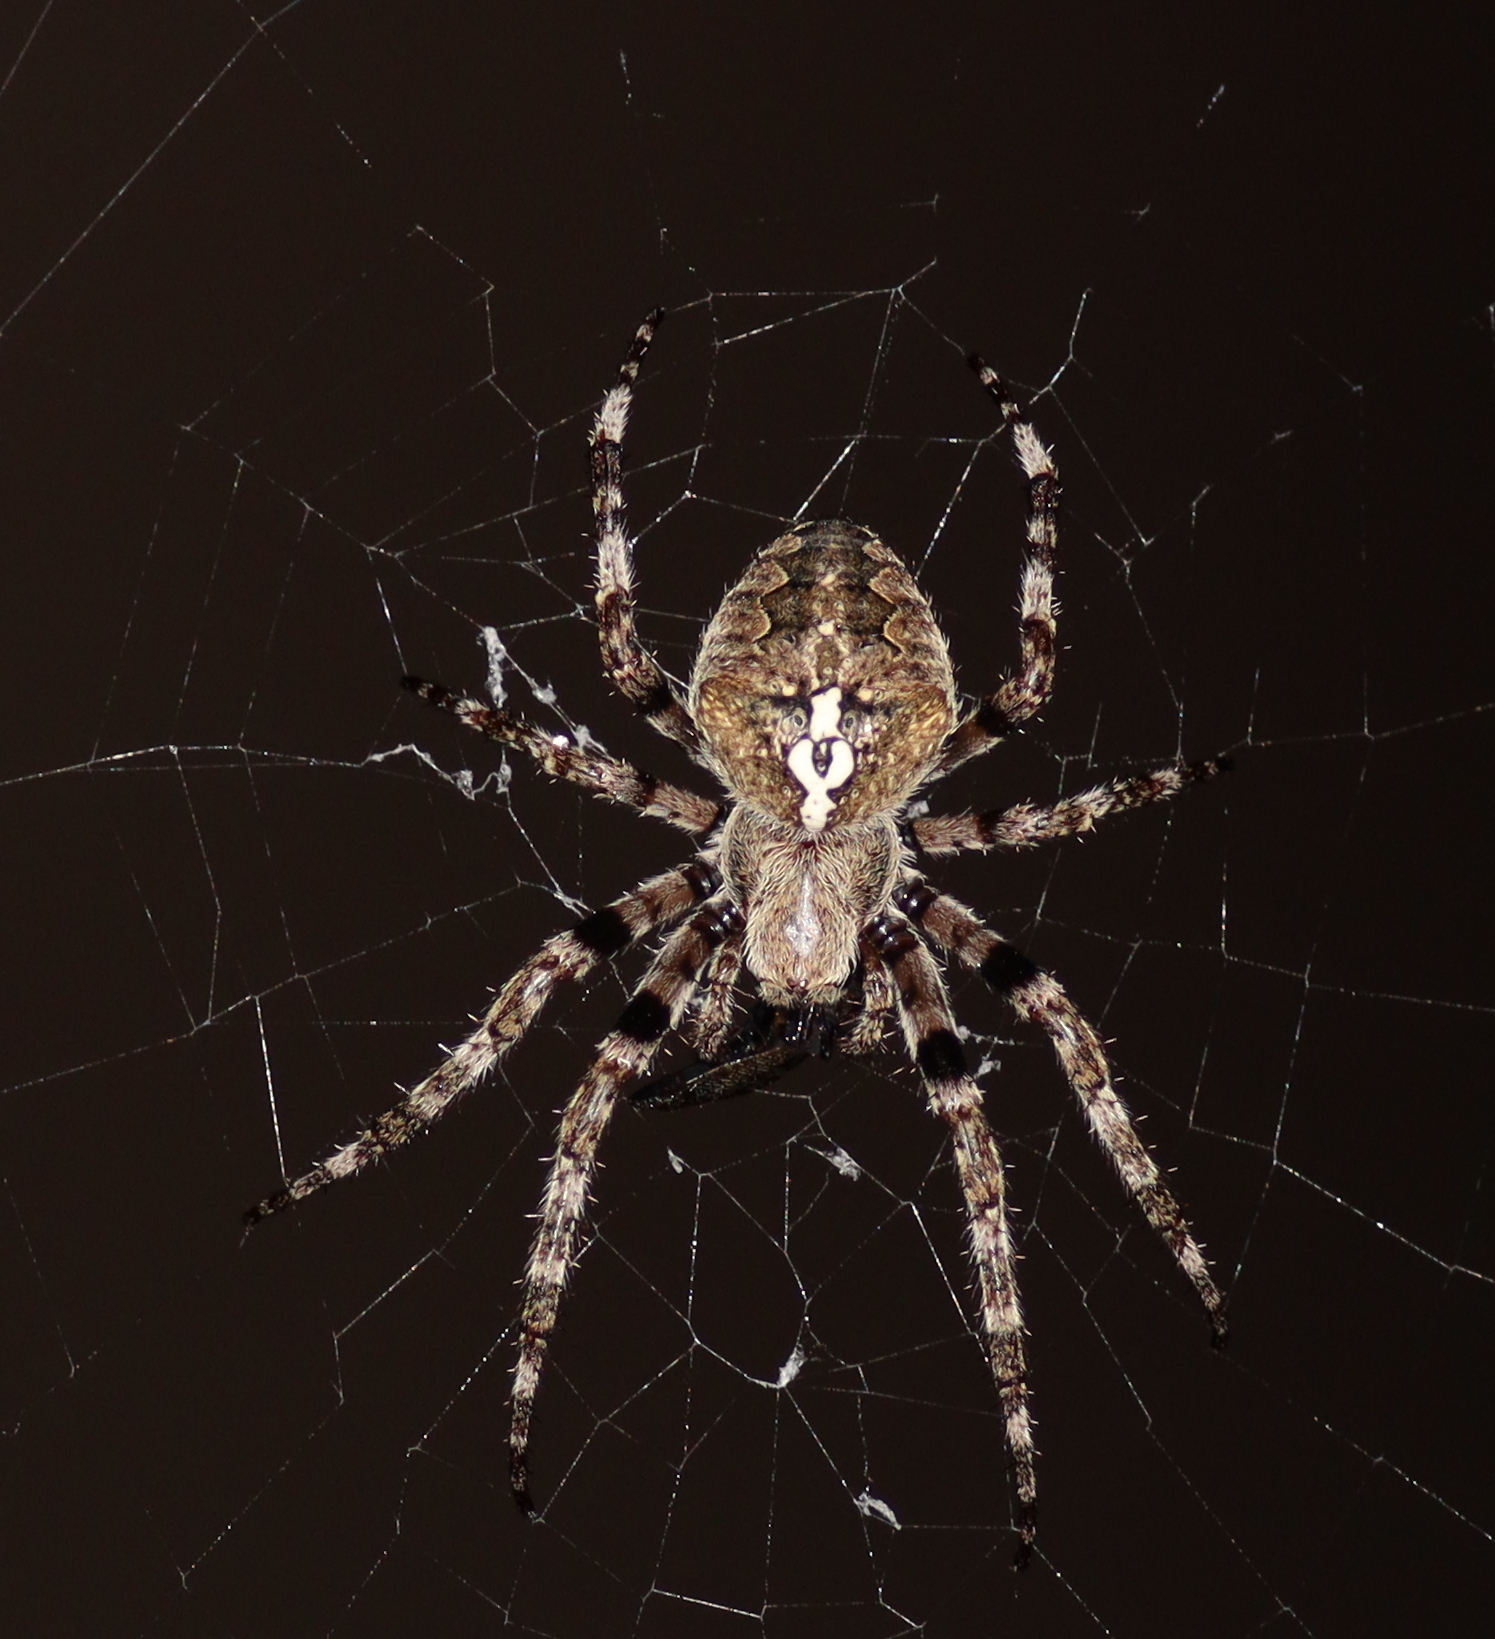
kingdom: Animalia
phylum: Arthropoda
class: Arachnida
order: Araneae
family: Araneidae
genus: Araneus
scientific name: Araneus angulatus
